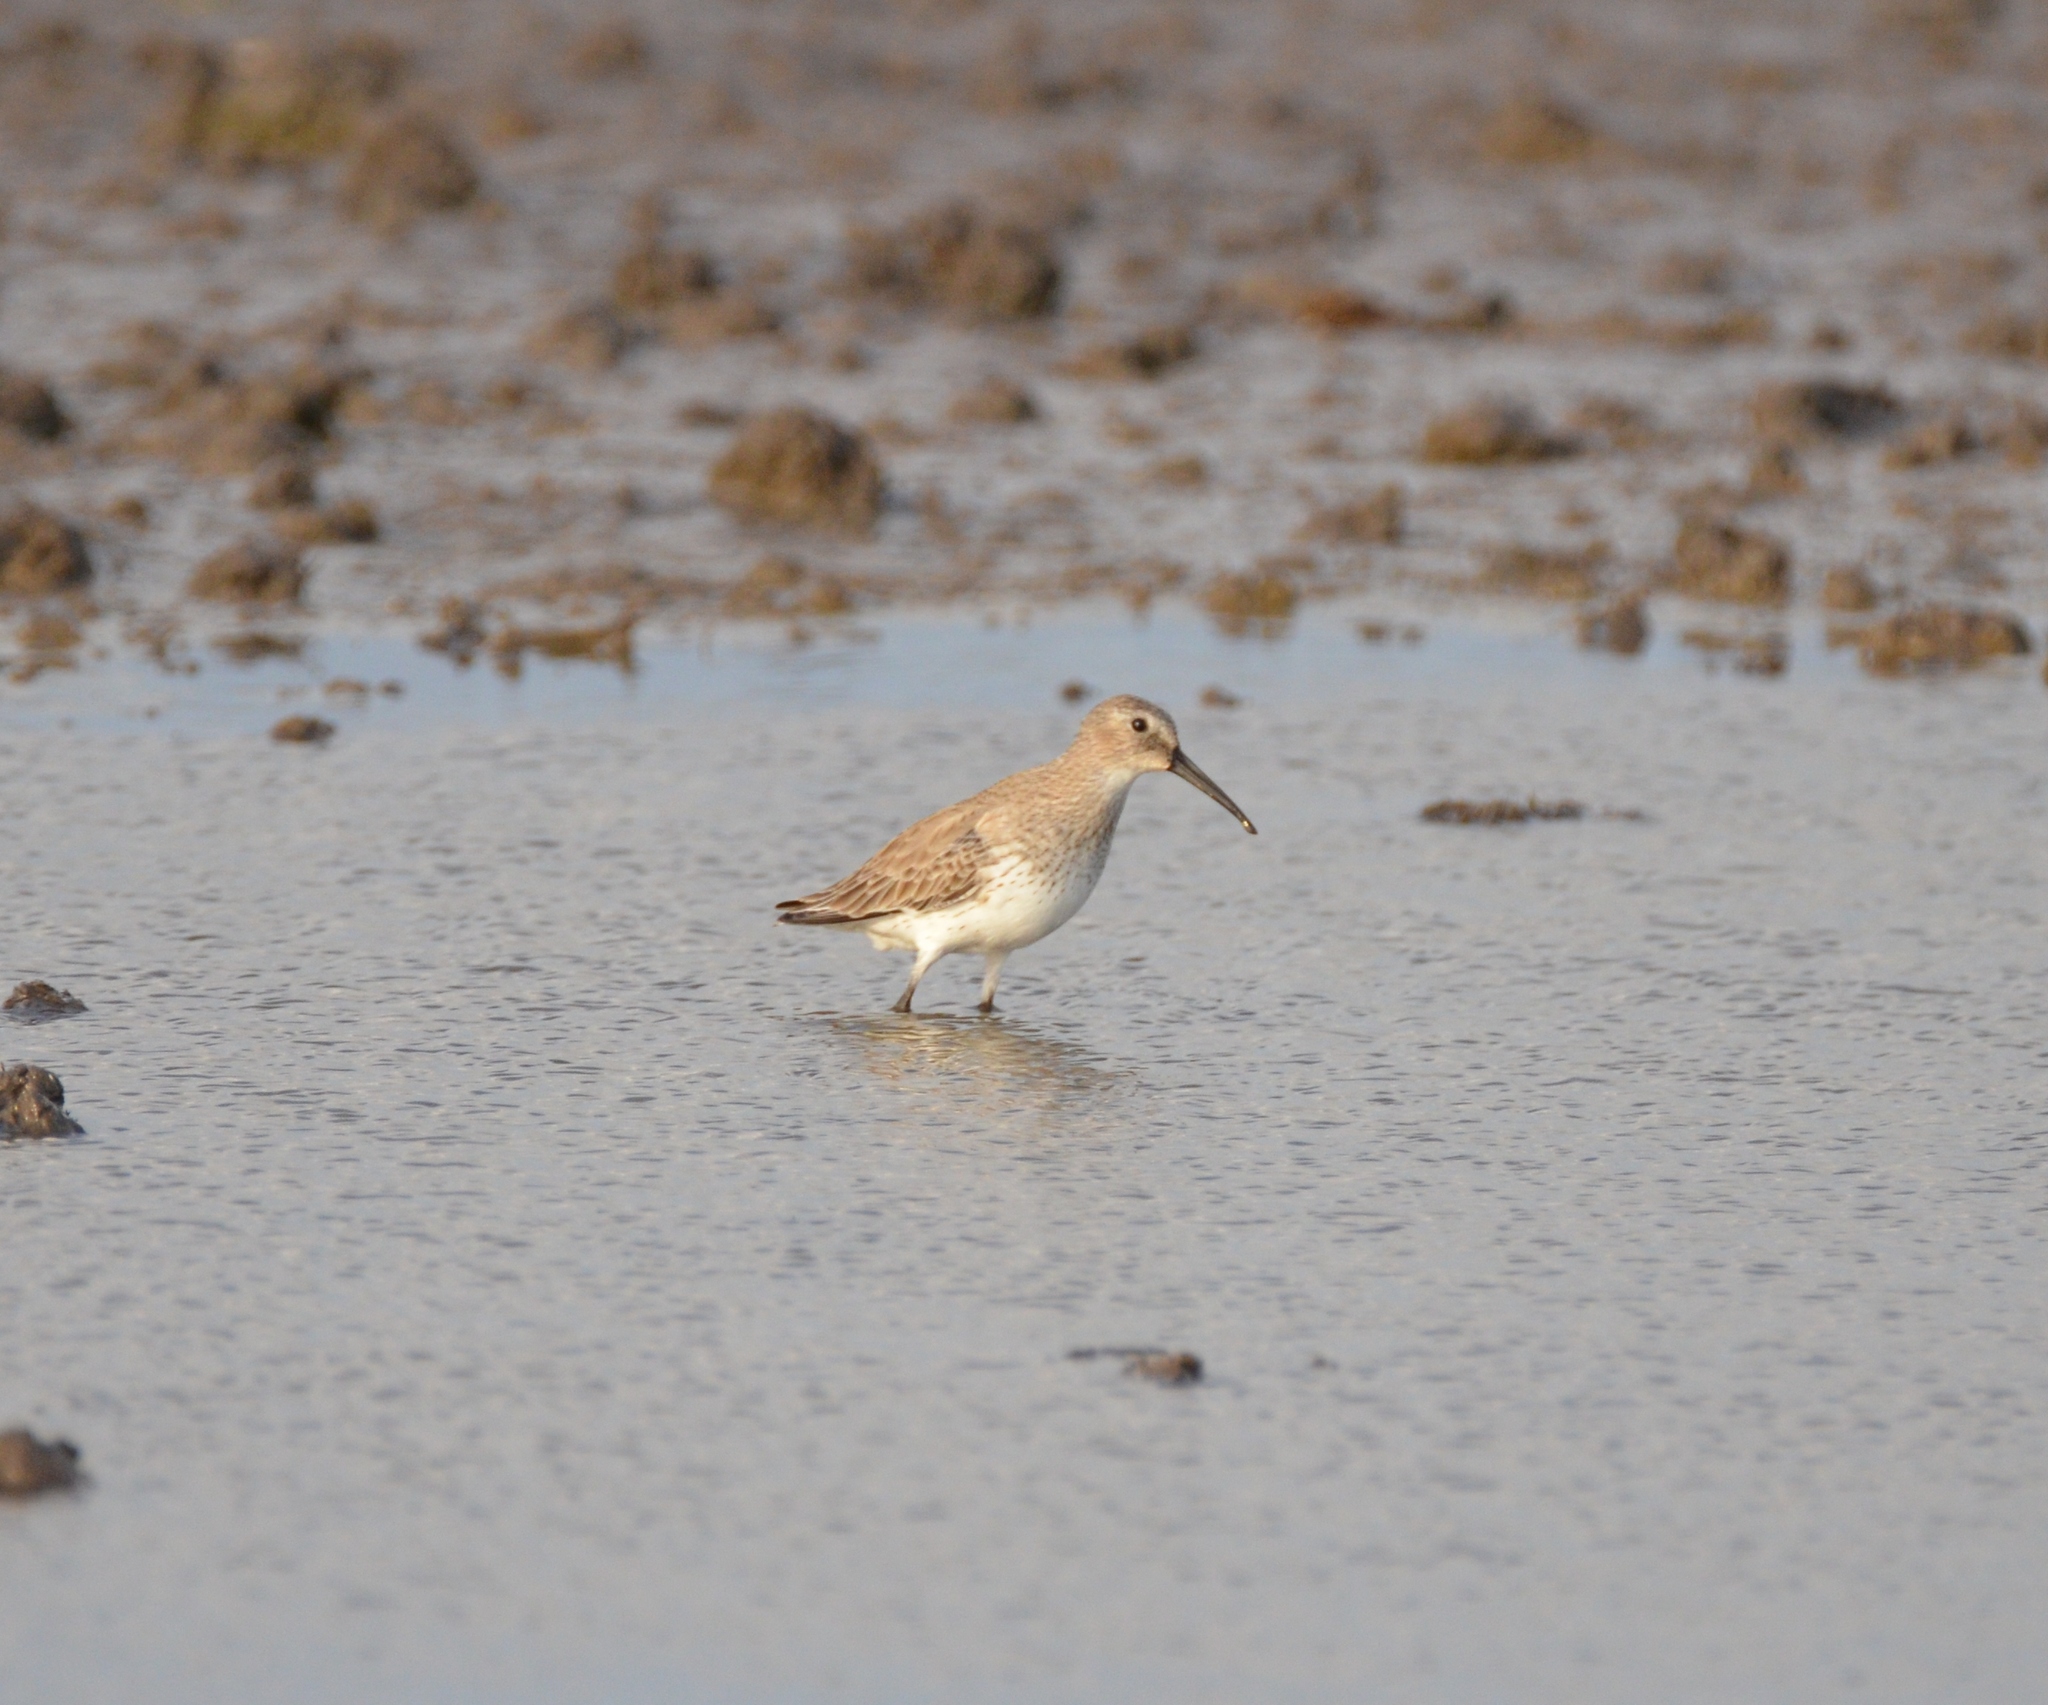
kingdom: Animalia
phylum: Chordata
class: Aves
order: Charadriiformes
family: Scolopacidae
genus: Calidris
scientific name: Calidris alpina
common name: Dunlin
